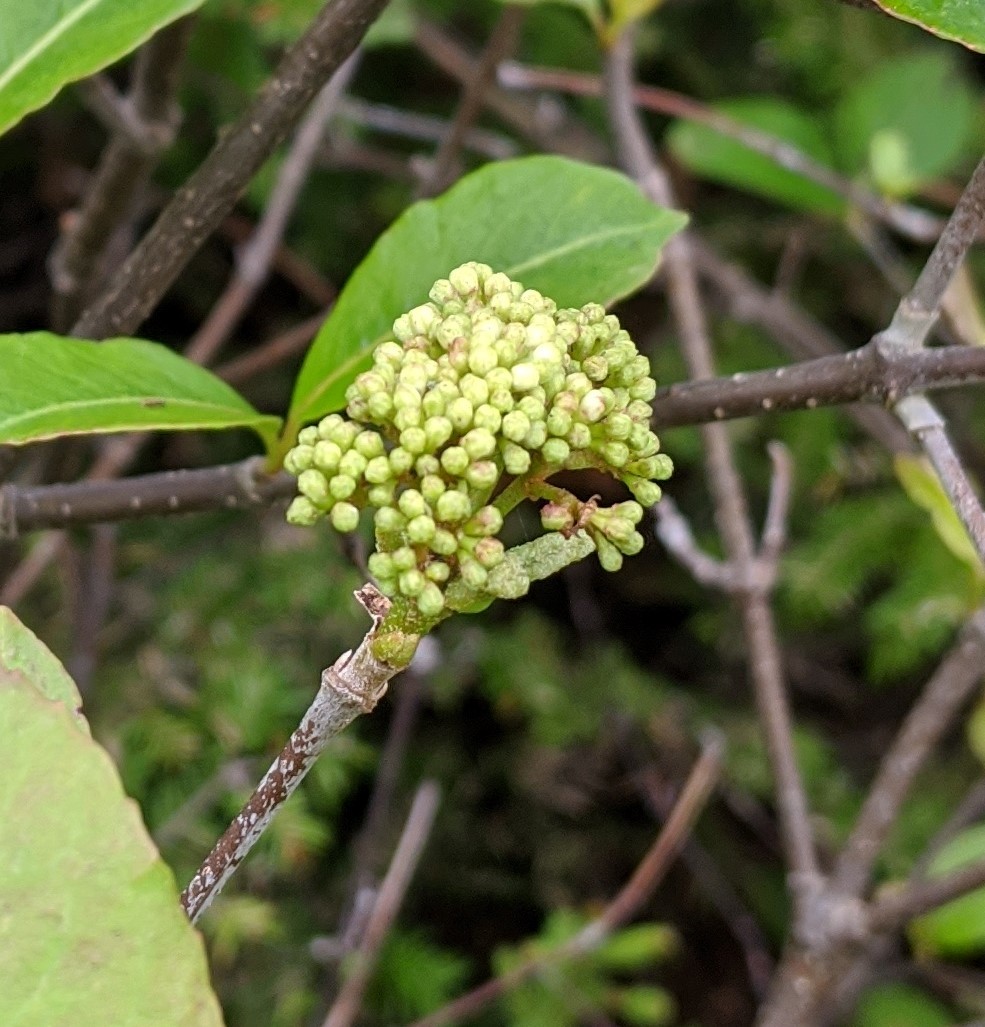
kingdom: Plantae
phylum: Tracheophyta
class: Magnoliopsida
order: Dipsacales
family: Viburnaceae
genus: Viburnum
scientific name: Viburnum cassinoides
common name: Swamp haw
